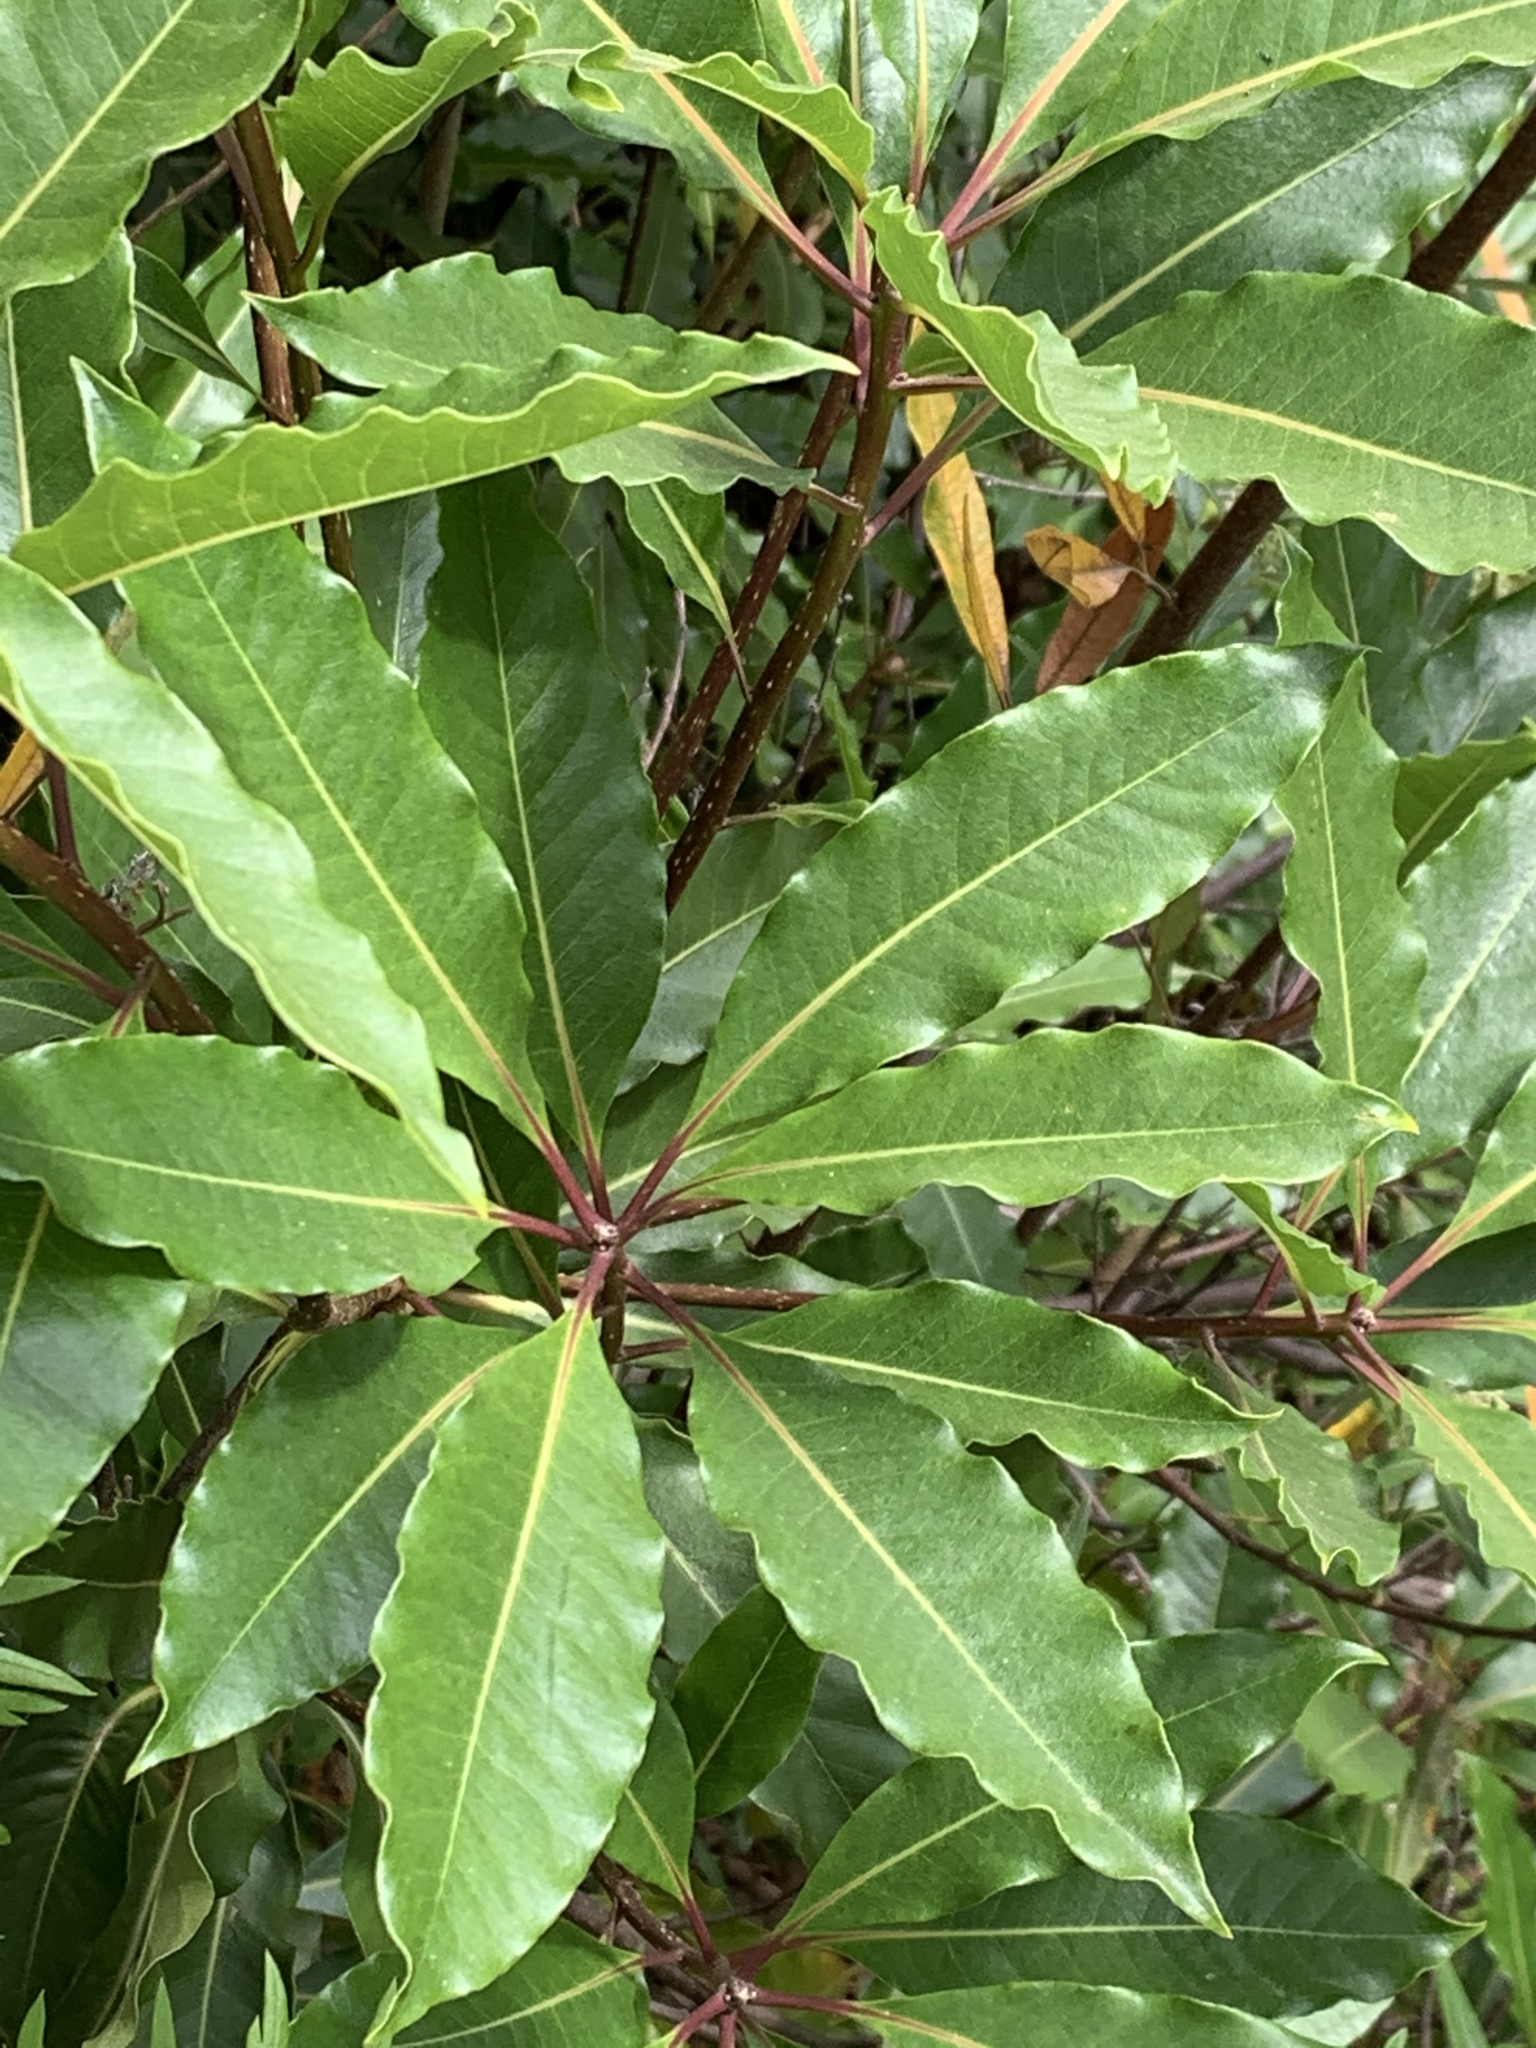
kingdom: Plantae
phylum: Tracheophyta
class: Magnoliopsida
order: Apiales
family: Pittosporaceae
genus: Pittosporum
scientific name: Pittosporum undulatum
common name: Australian cheesewood
